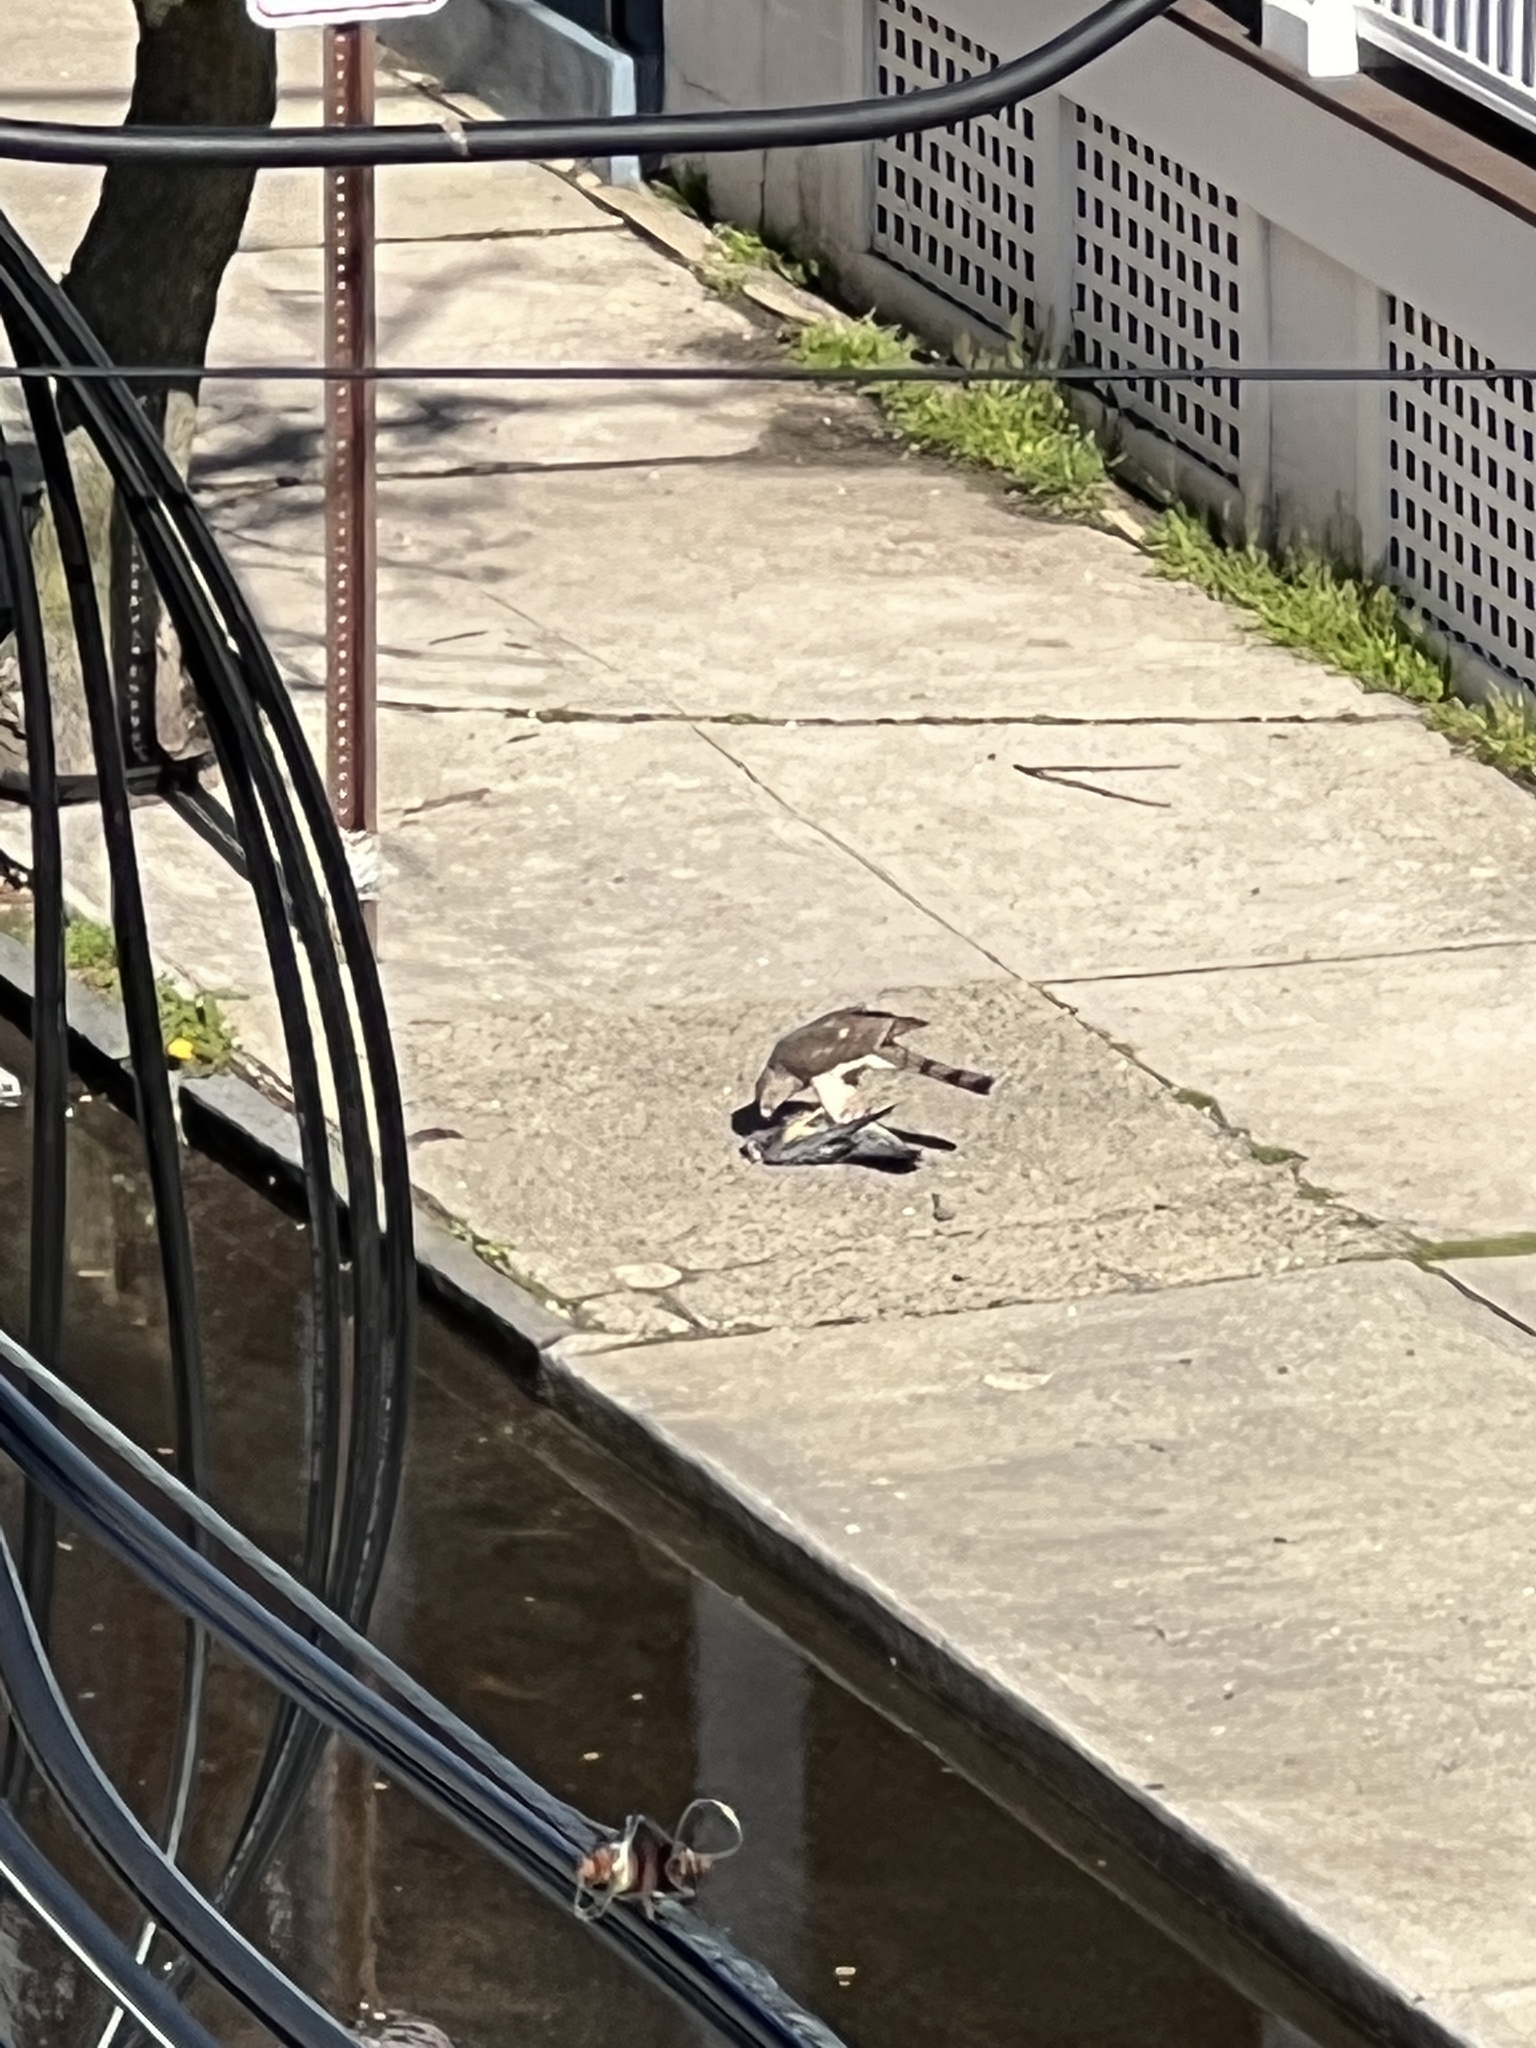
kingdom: Animalia
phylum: Chordata
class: Aves
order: Accipitriformes
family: Accipitridae
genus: Accipiter
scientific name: Accipiter cooperii
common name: Cooper's hawk
